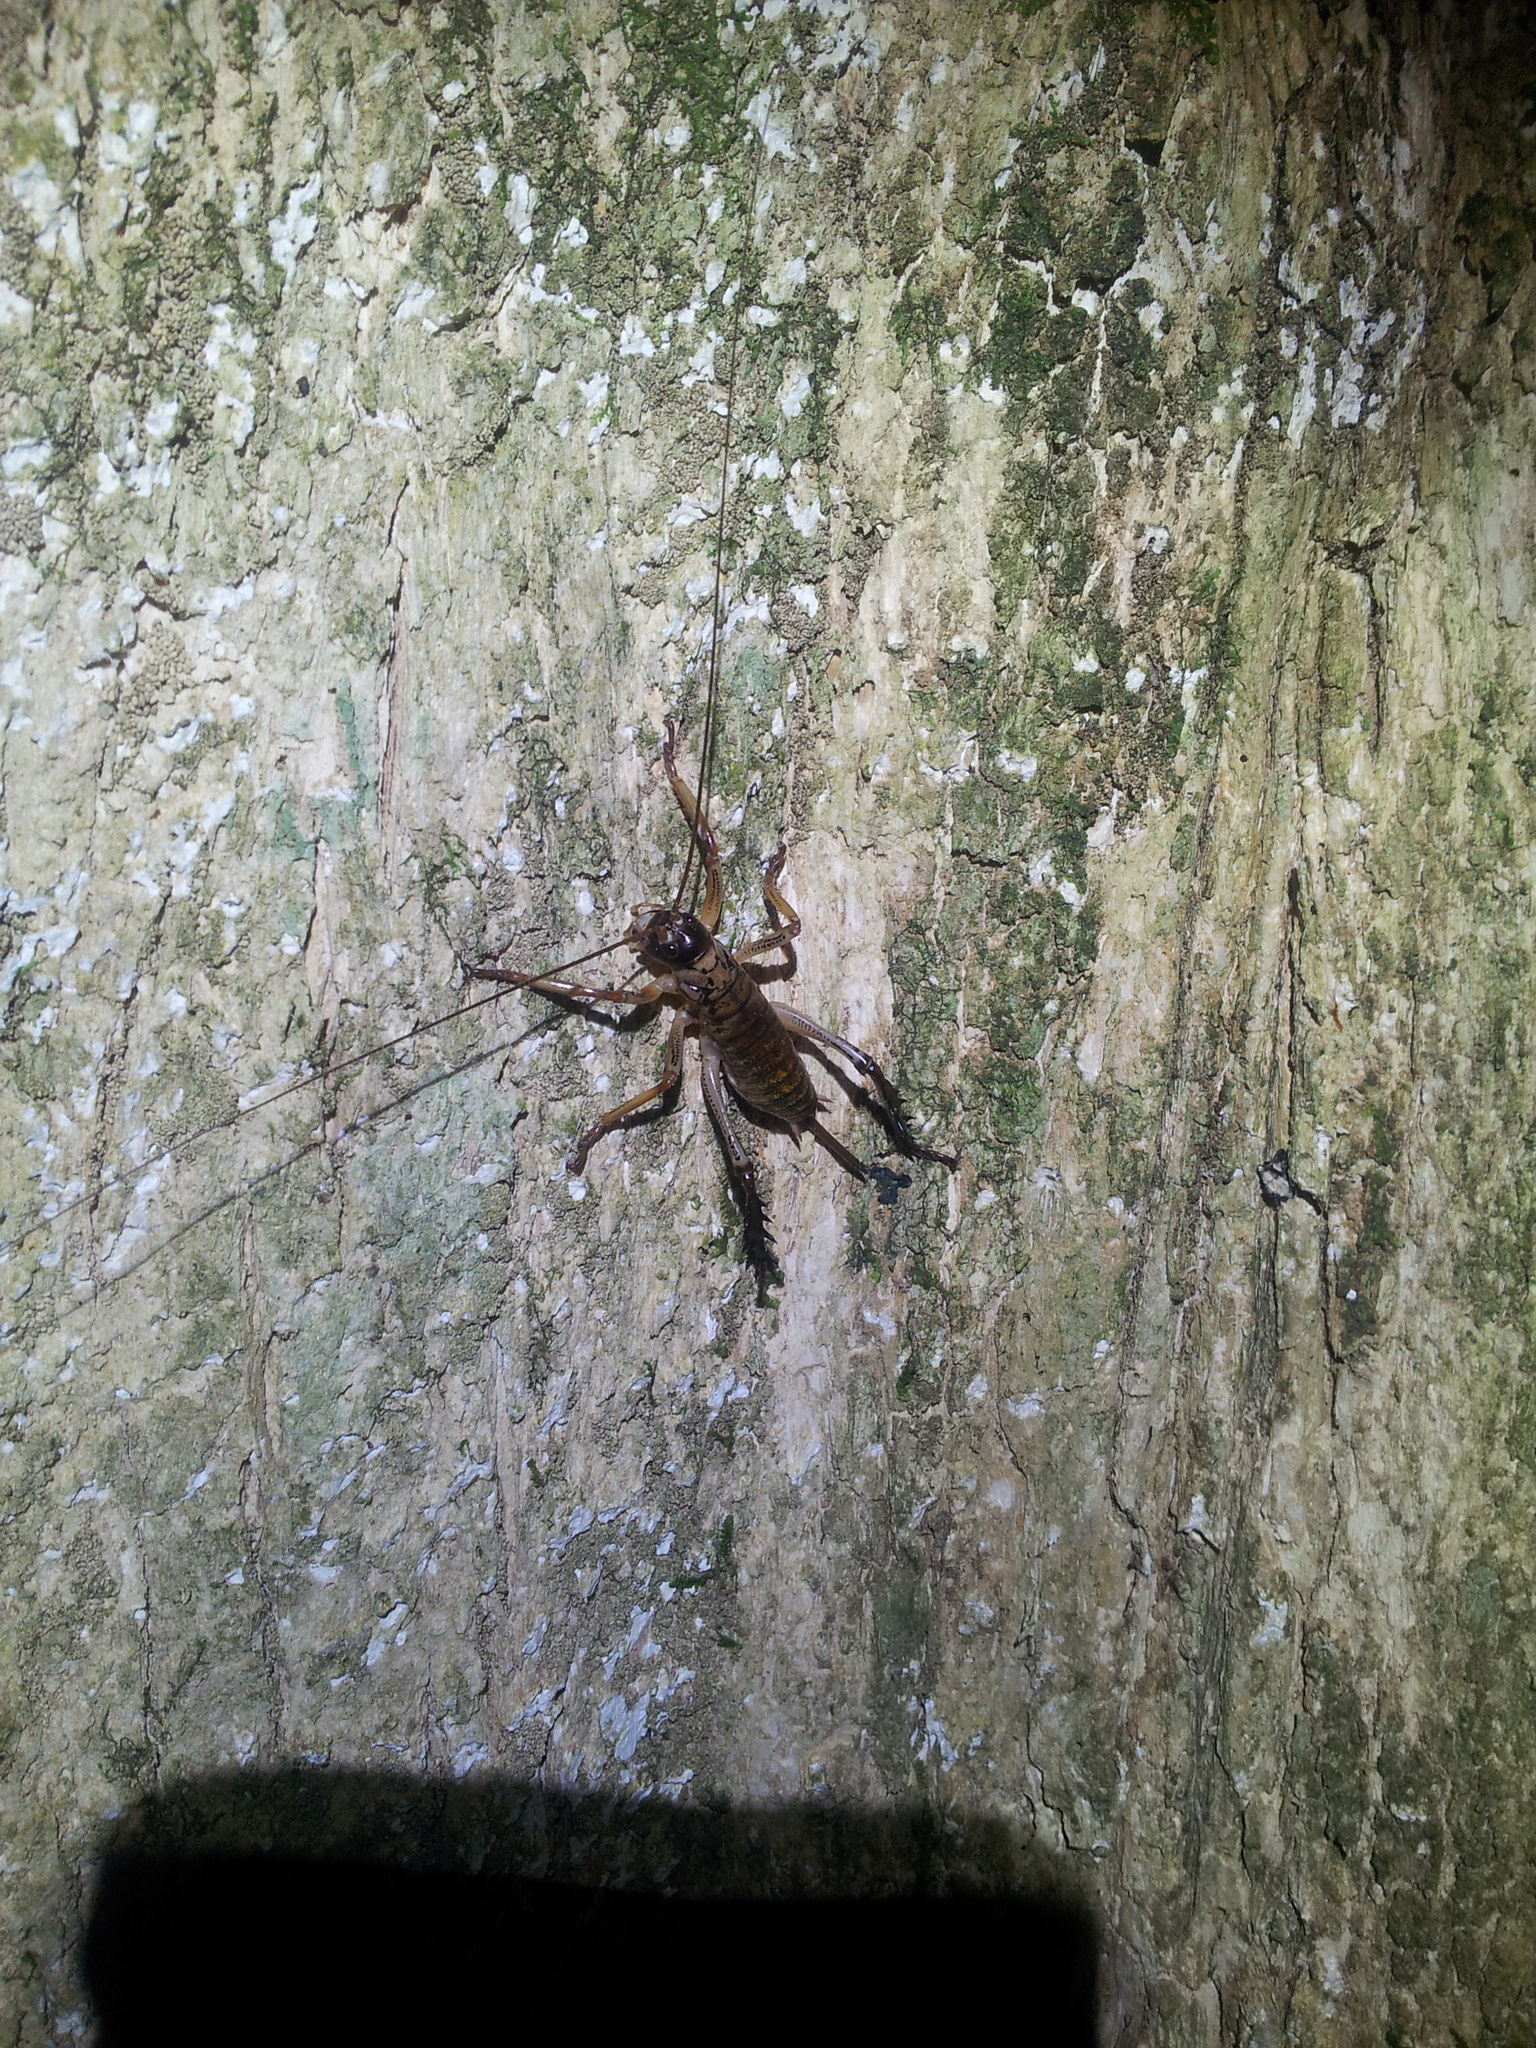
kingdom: Animalia
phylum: Arthropoda
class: Insecta
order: Orthoptera
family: Anostostomatidae
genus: Hemideina
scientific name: Hemideina thoracica
